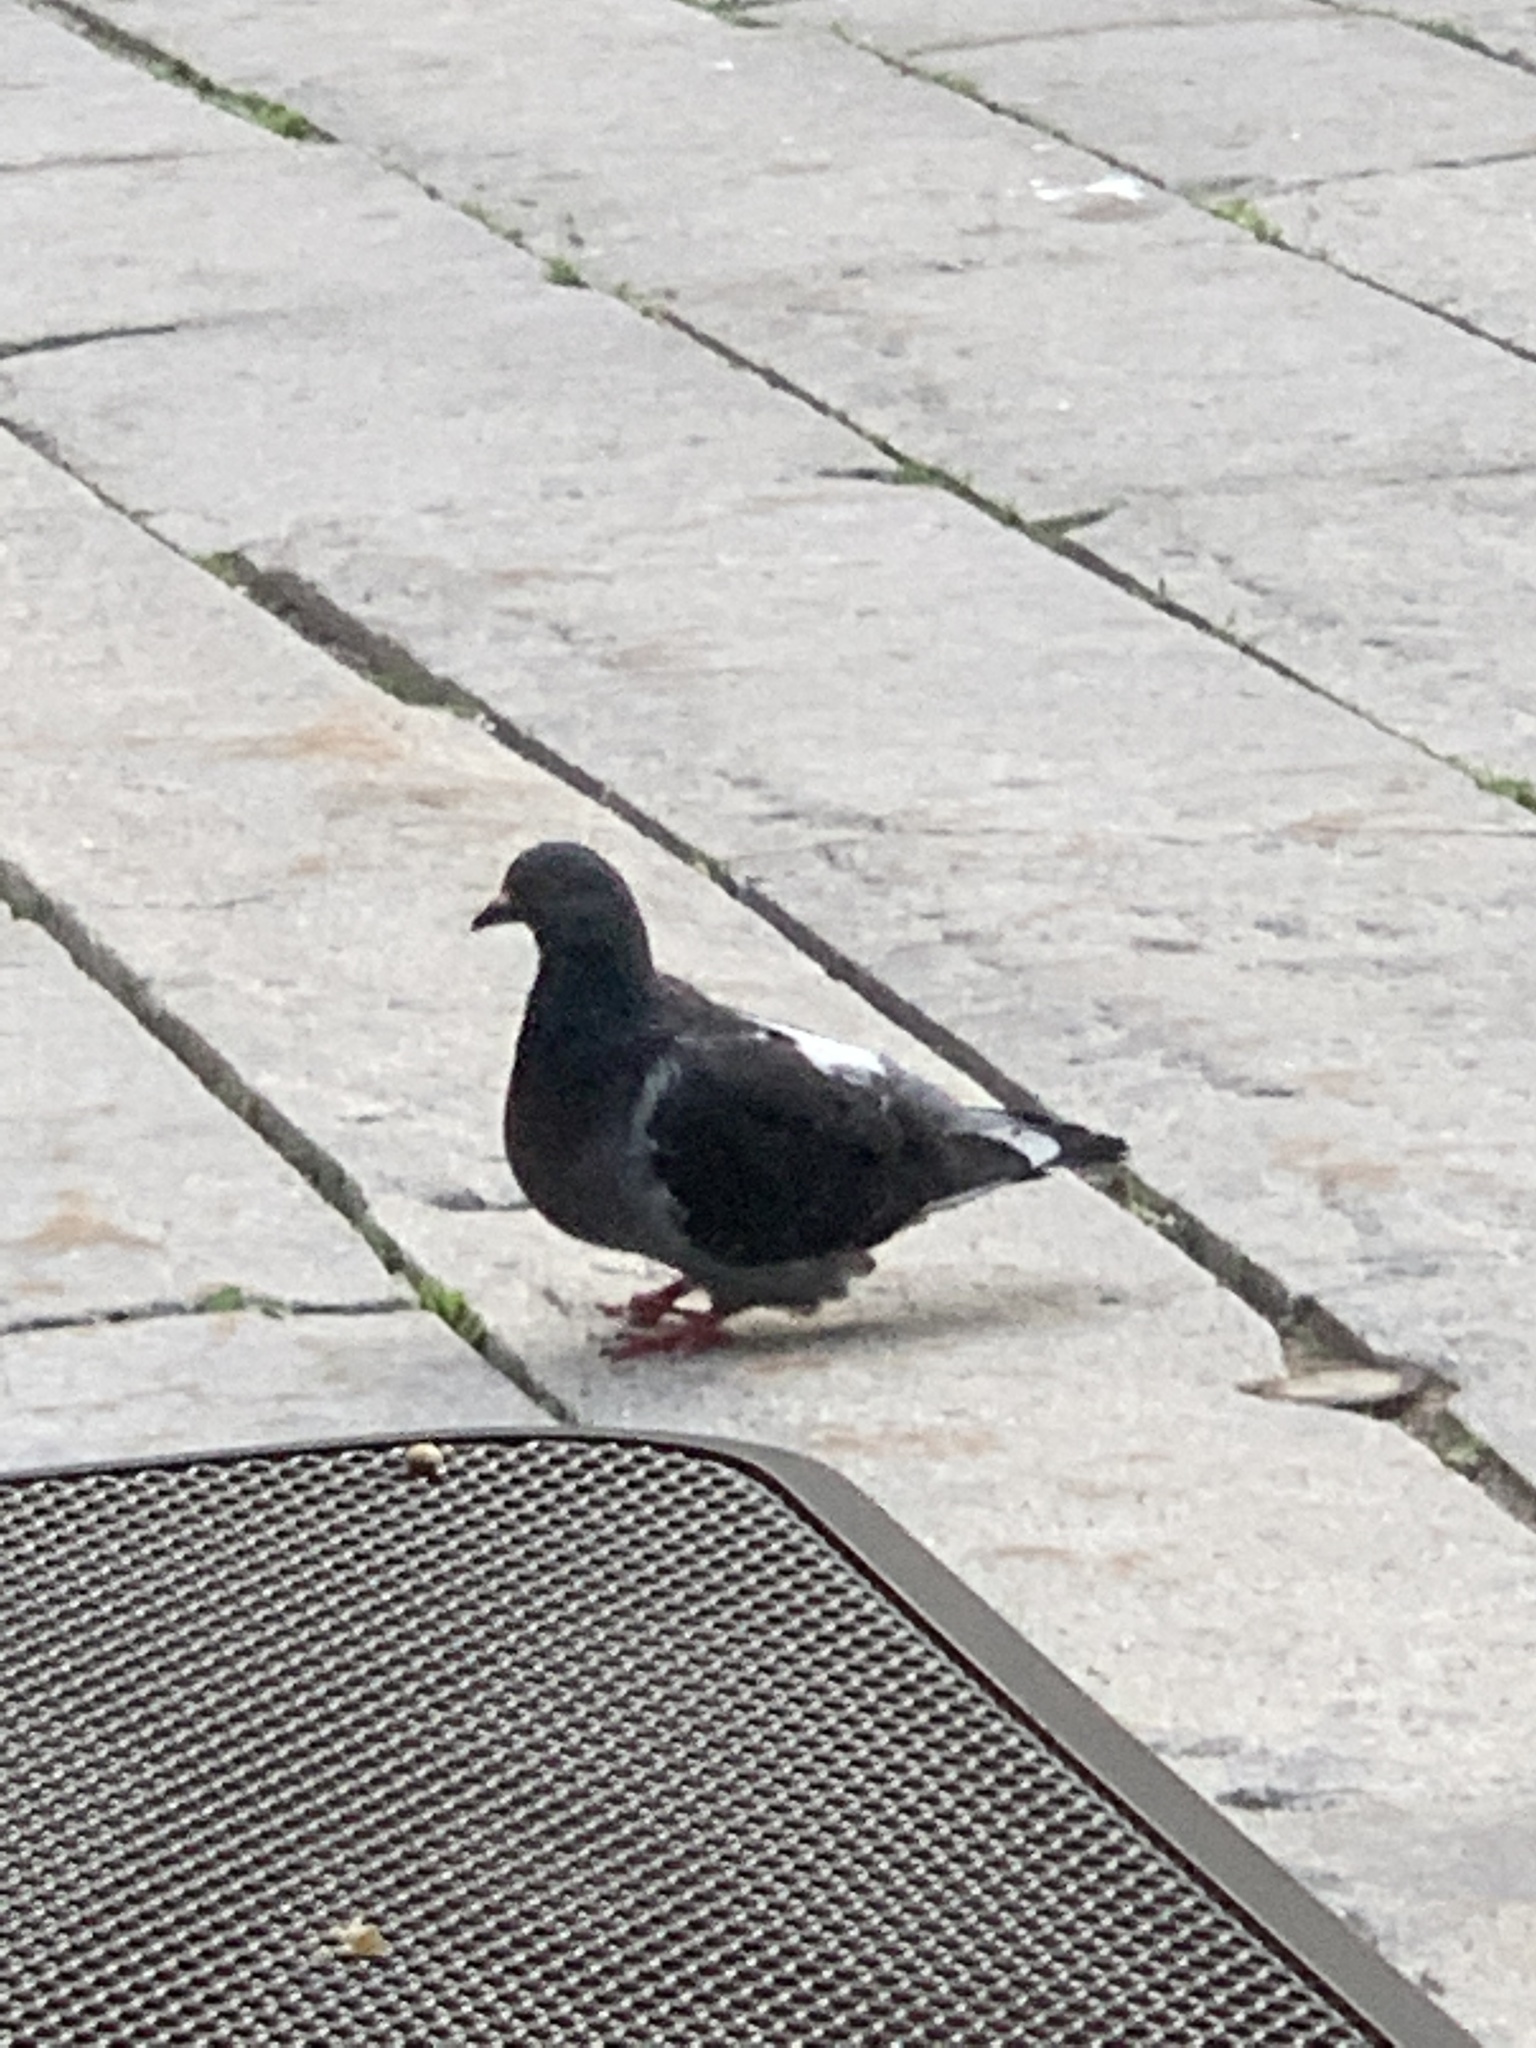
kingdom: Animalia
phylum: Chordata
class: Aves
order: Columbiformes
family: Columbidae
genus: Columba
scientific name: Columba livia
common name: Rock pigeon
